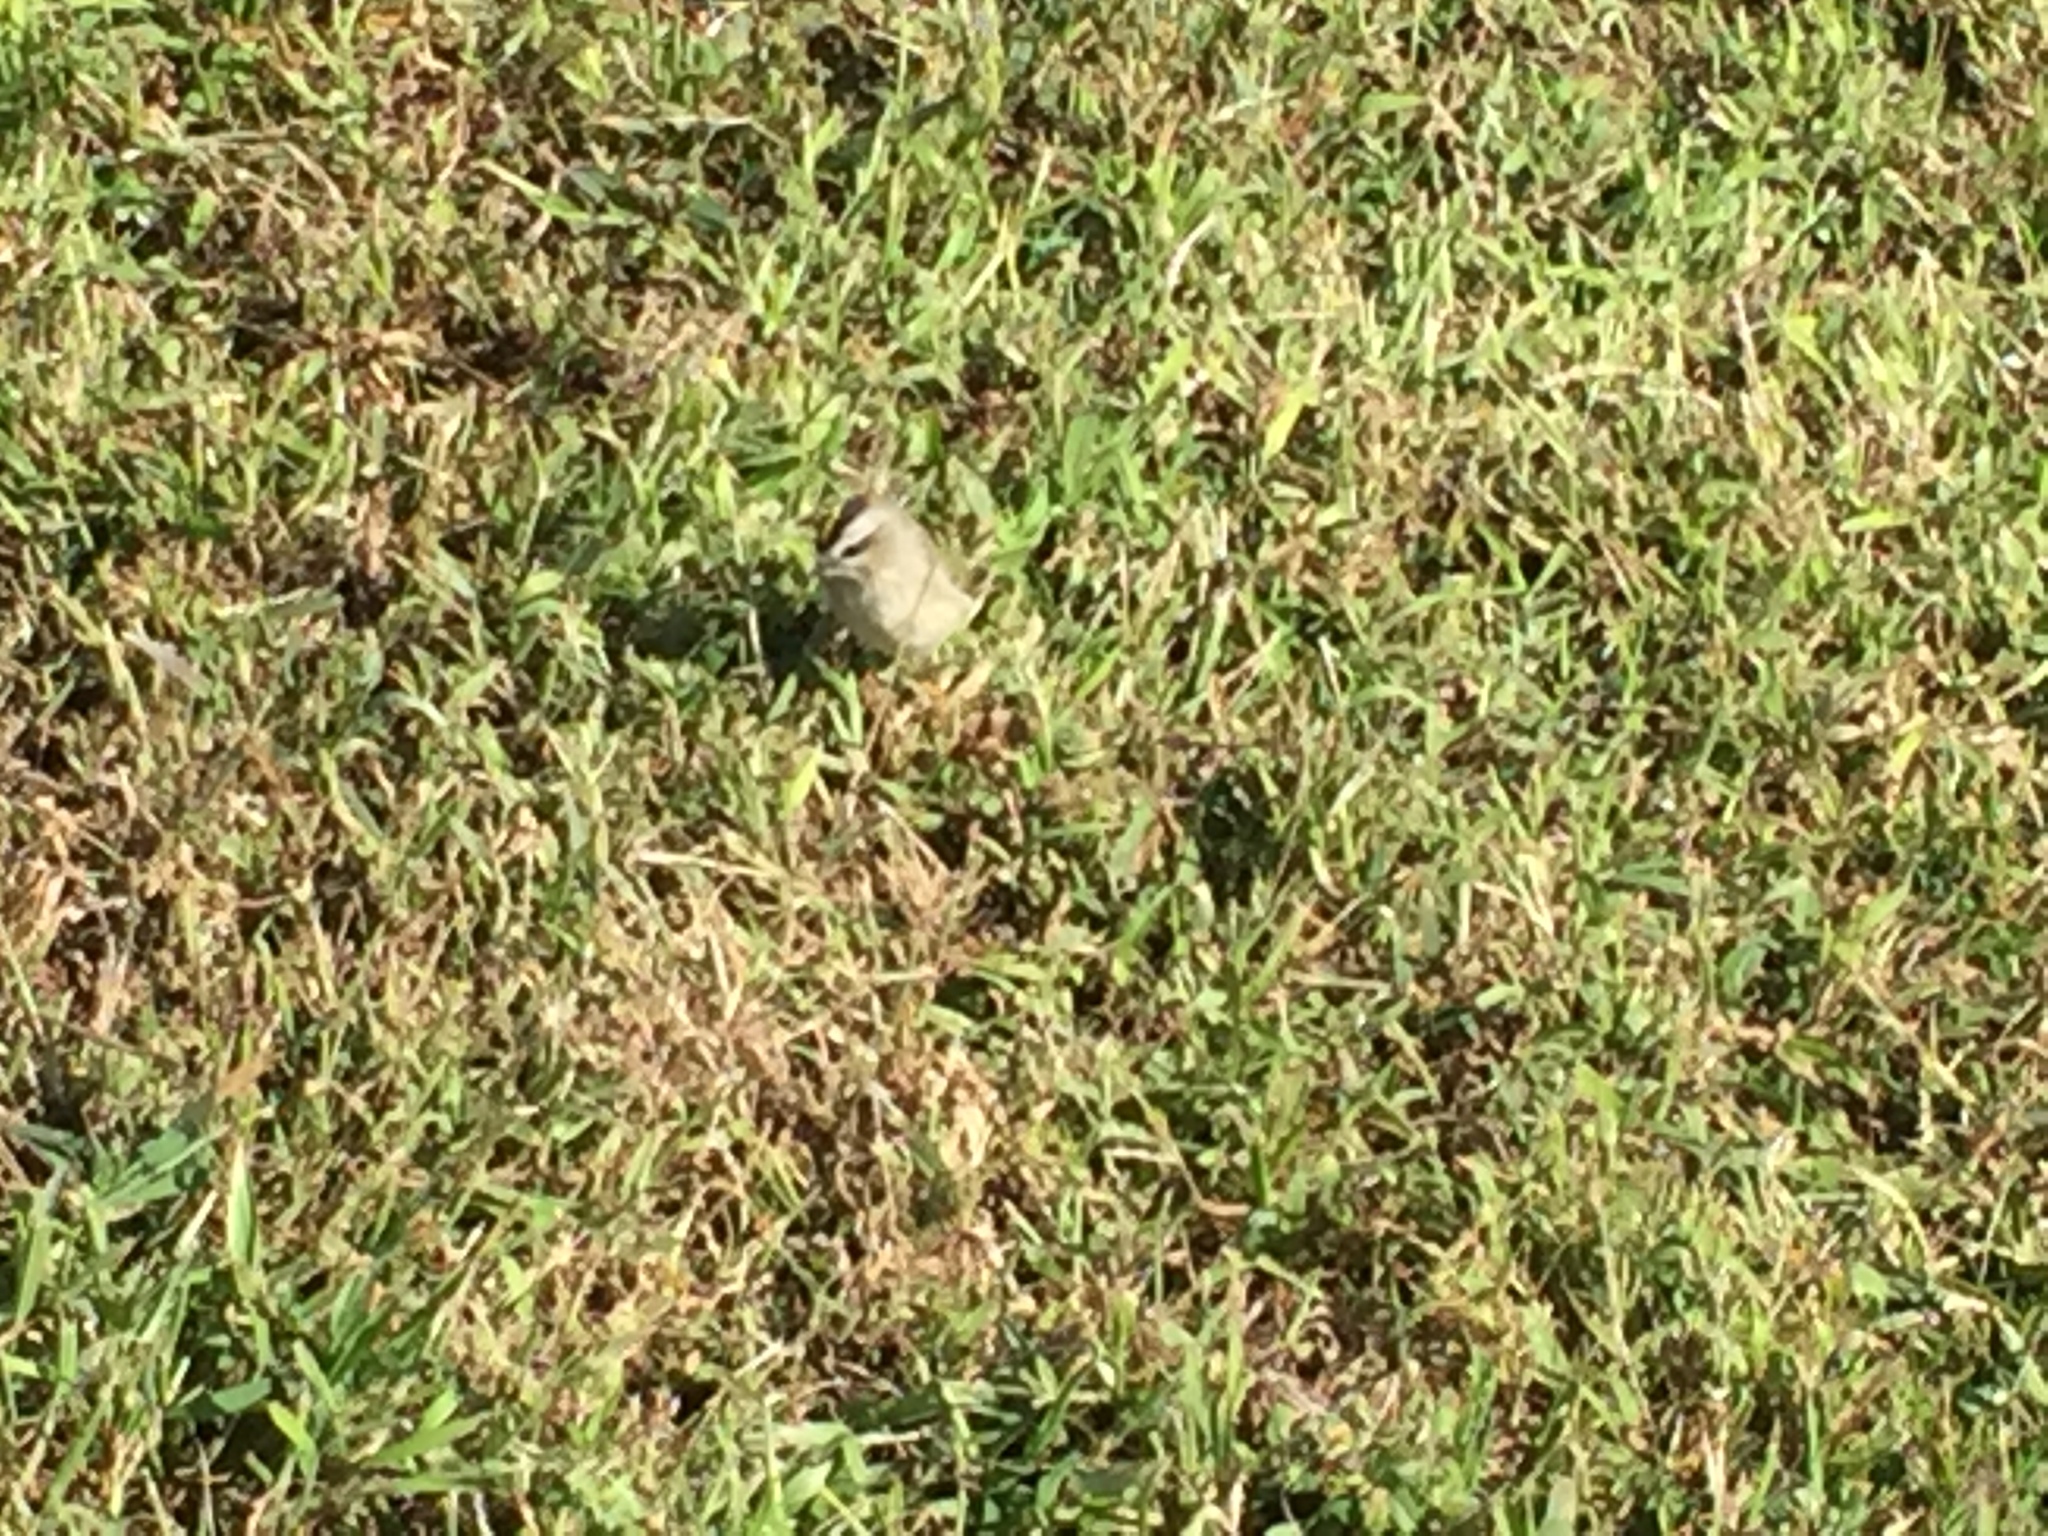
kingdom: Animalia
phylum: Chordata
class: Aves
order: Passeriformes
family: Regulidae
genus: Regulus
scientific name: Regulus satrapa
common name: Golden-crowned kinglet
